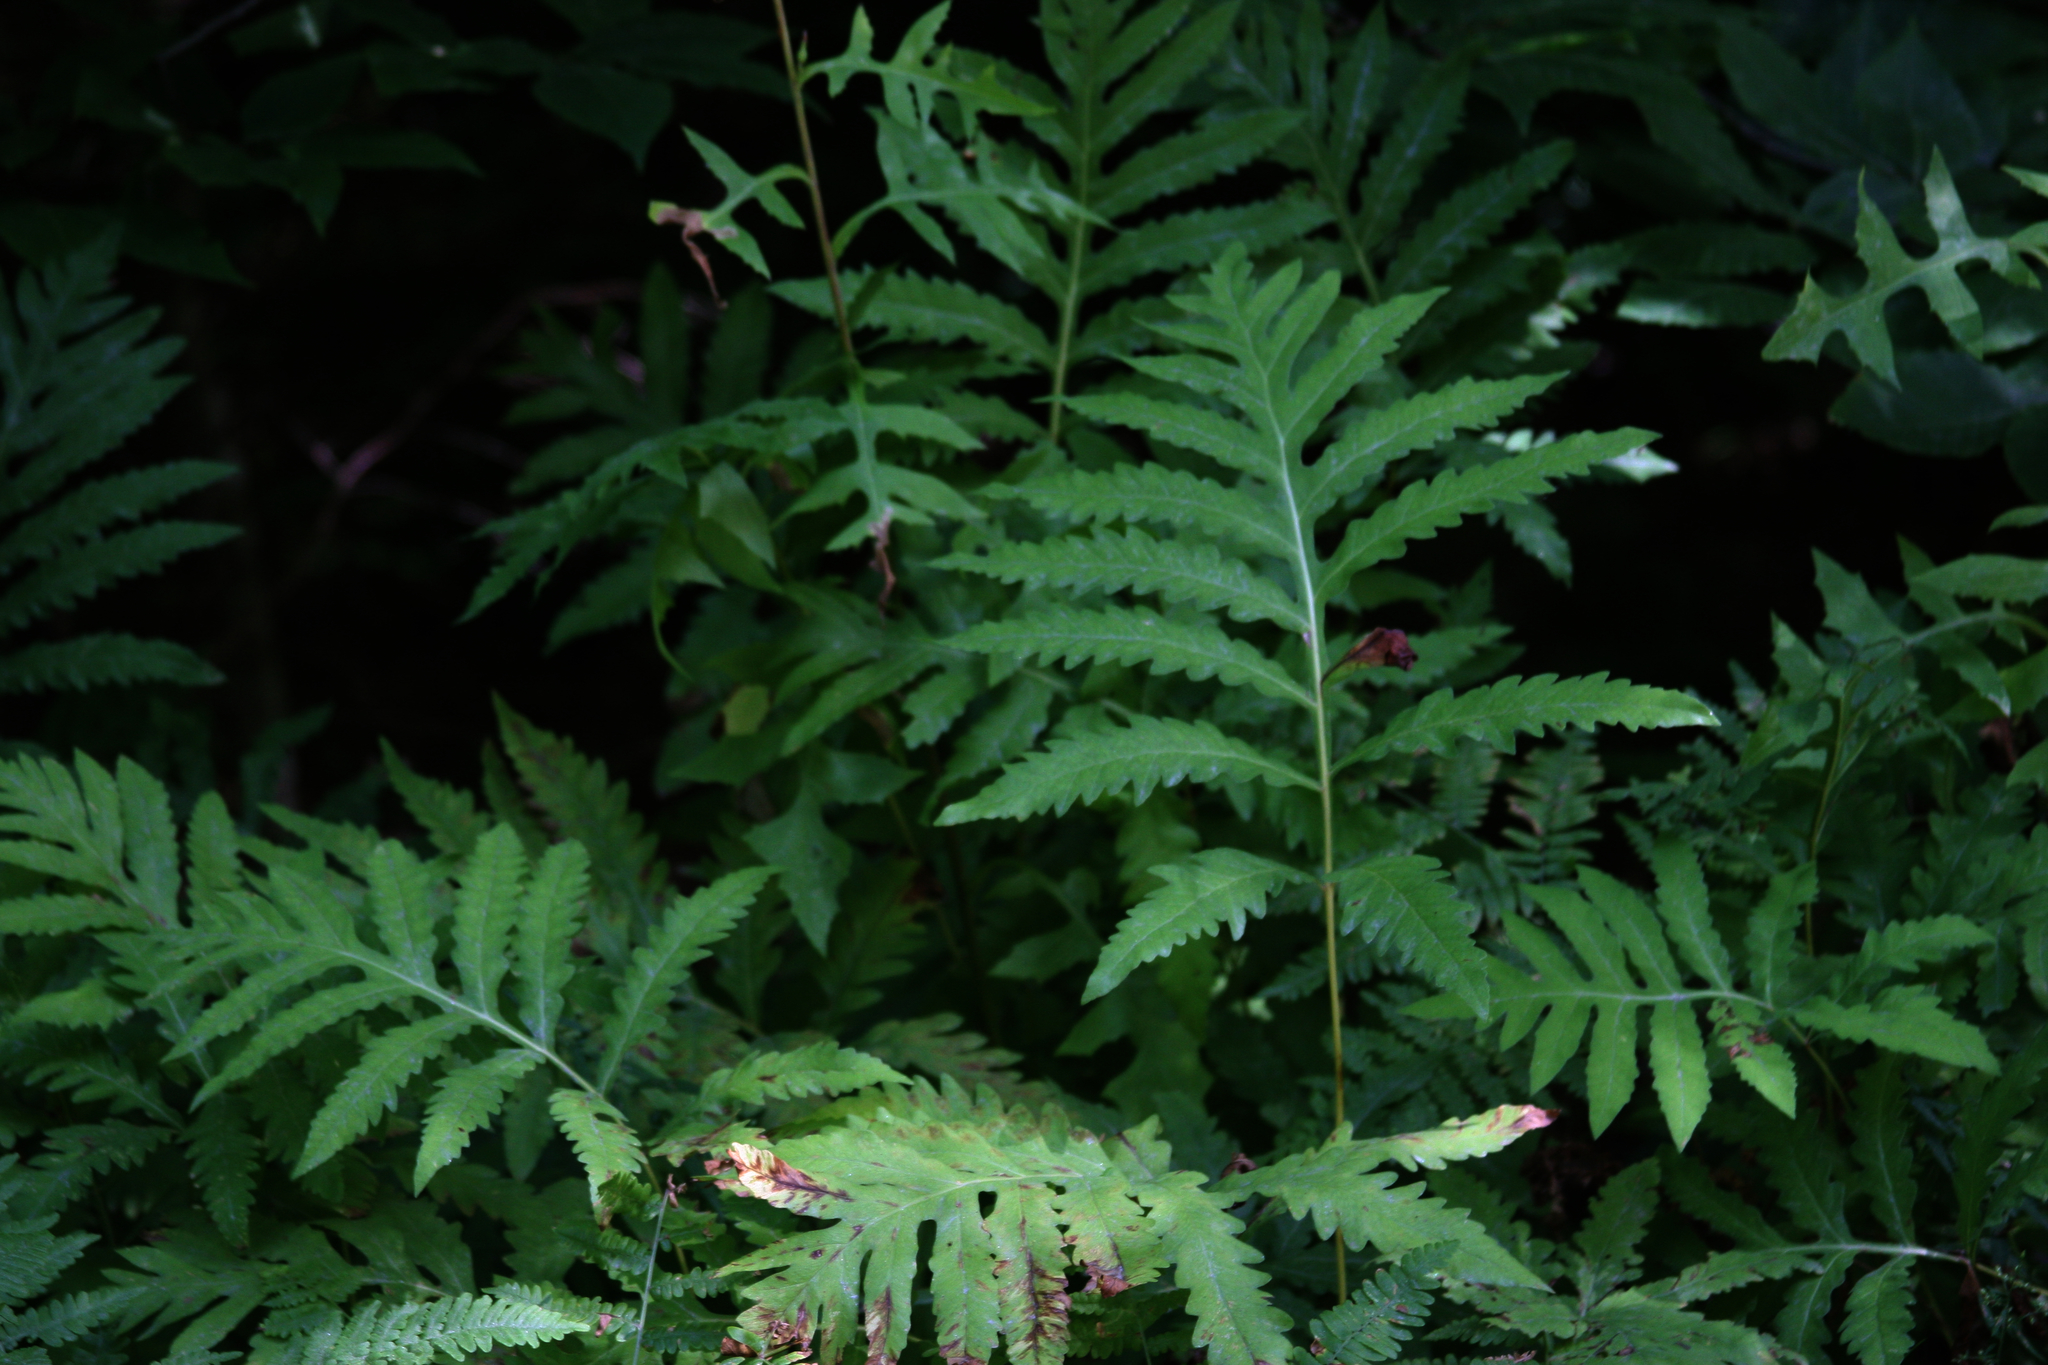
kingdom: Plantae
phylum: Tracheophyta
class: Polypodiopsida
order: Polypodiales
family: Onocleaceae
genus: Onoclea
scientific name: Onoclea sensibilis
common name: Sensitive fern
